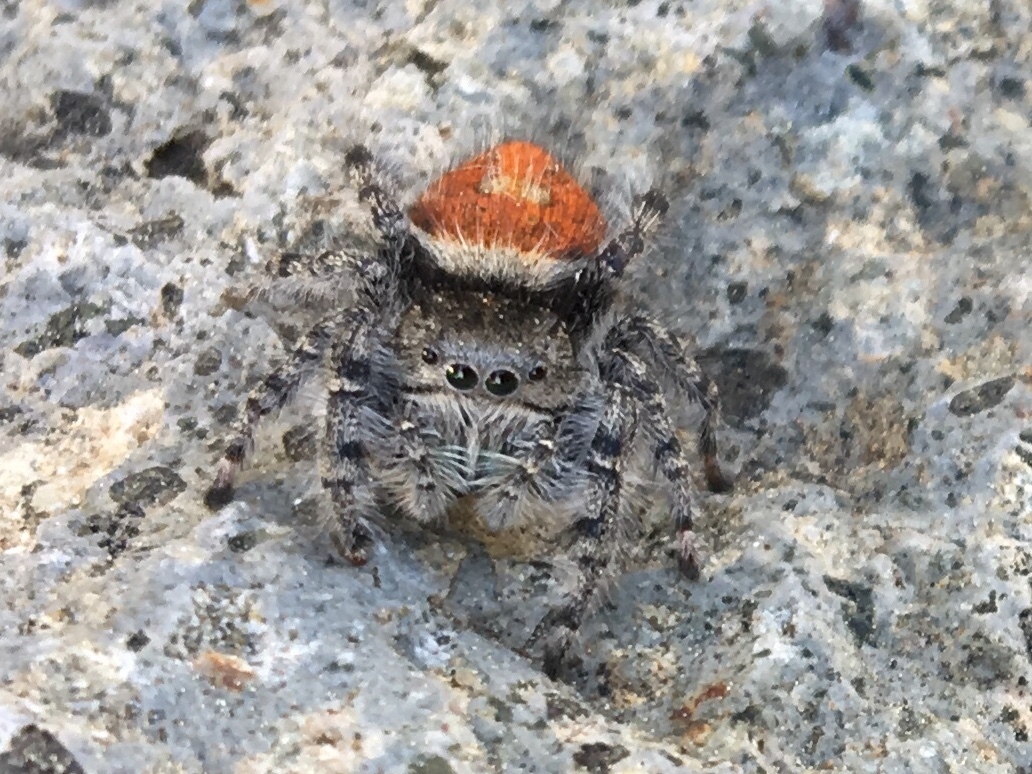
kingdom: Animalia
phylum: Arthropoda
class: Arachnida
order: Araneae
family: Salticidae
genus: Phidippus
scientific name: Phidippus adumbratus
